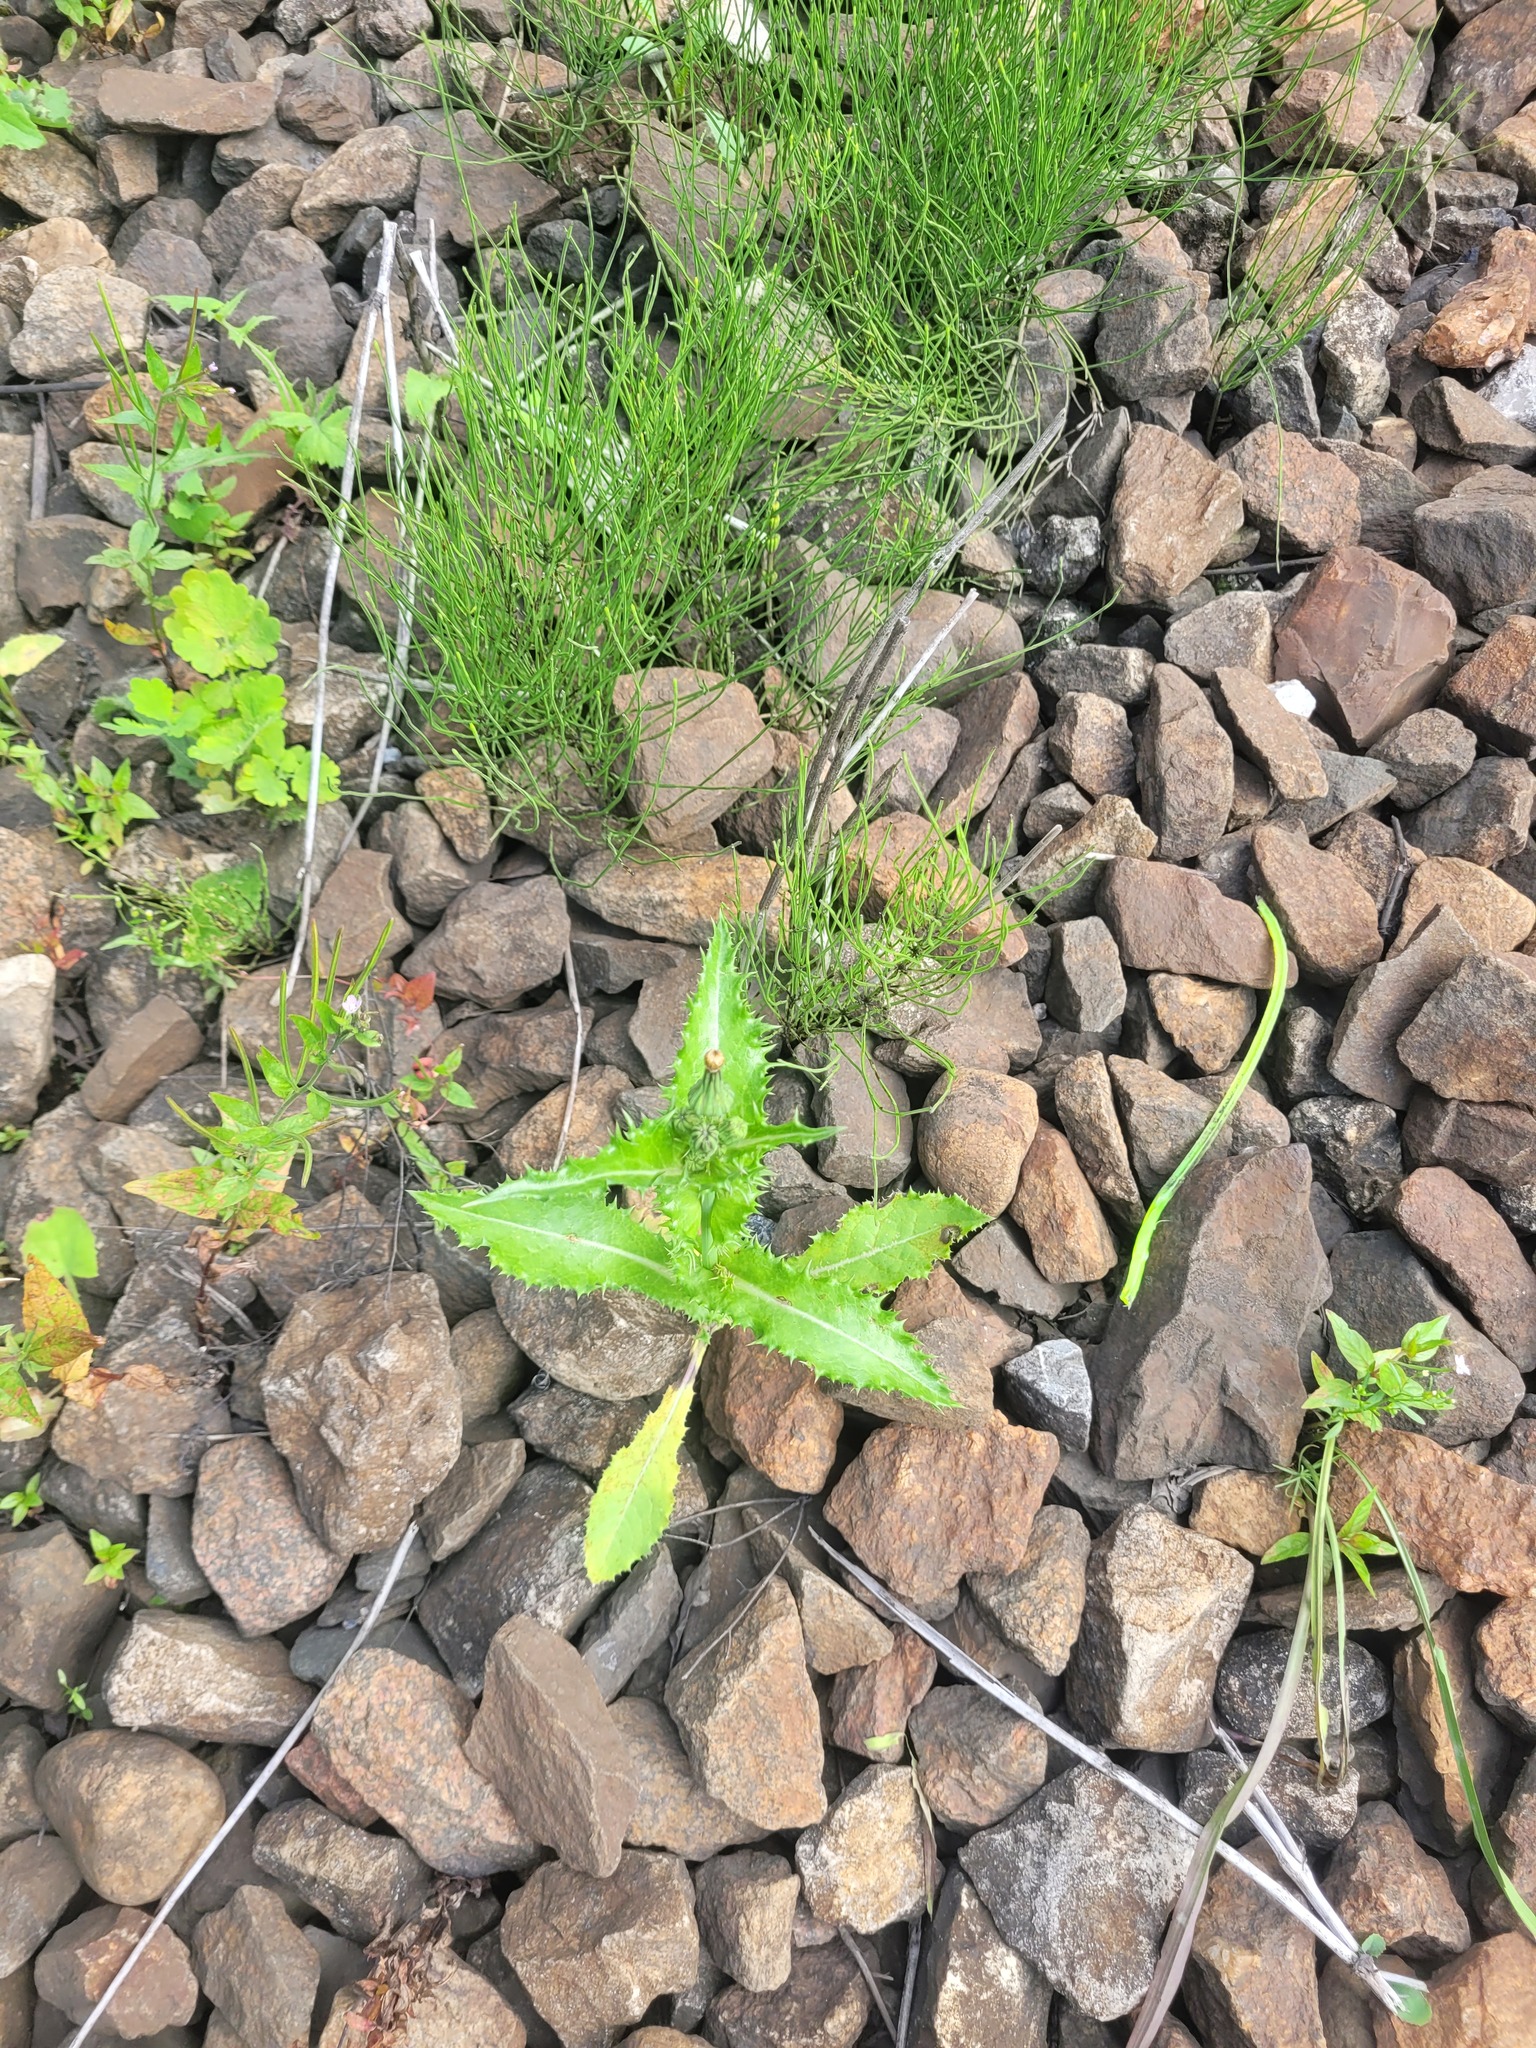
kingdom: Plantae
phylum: Tracheophyta
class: Magnoliopsida
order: Asterales
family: Asteraceae
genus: Sonchus
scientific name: Sonchus asper
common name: Prickly sow-thistle
